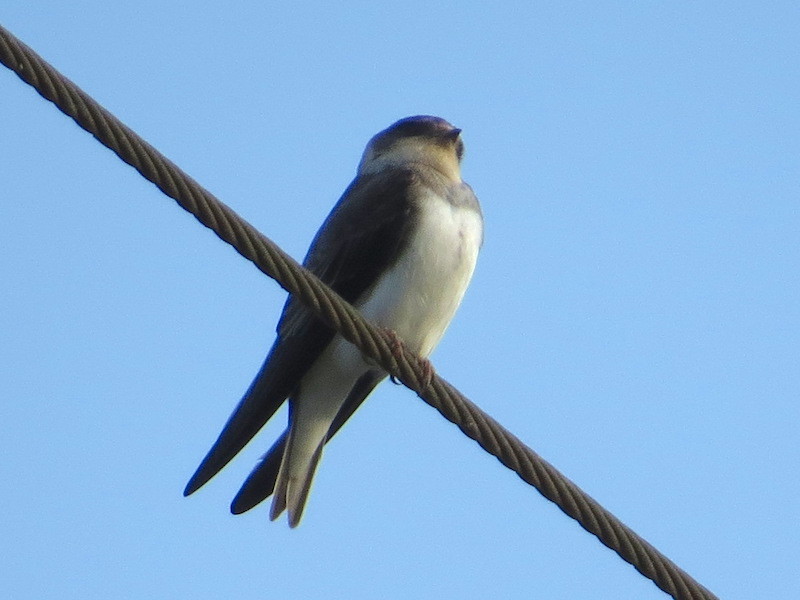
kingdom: Animalia
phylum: Chordata
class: Aves
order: Passeriformes
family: Hirundinidae
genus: Riparia
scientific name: Riparia riparia
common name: Sand martin
